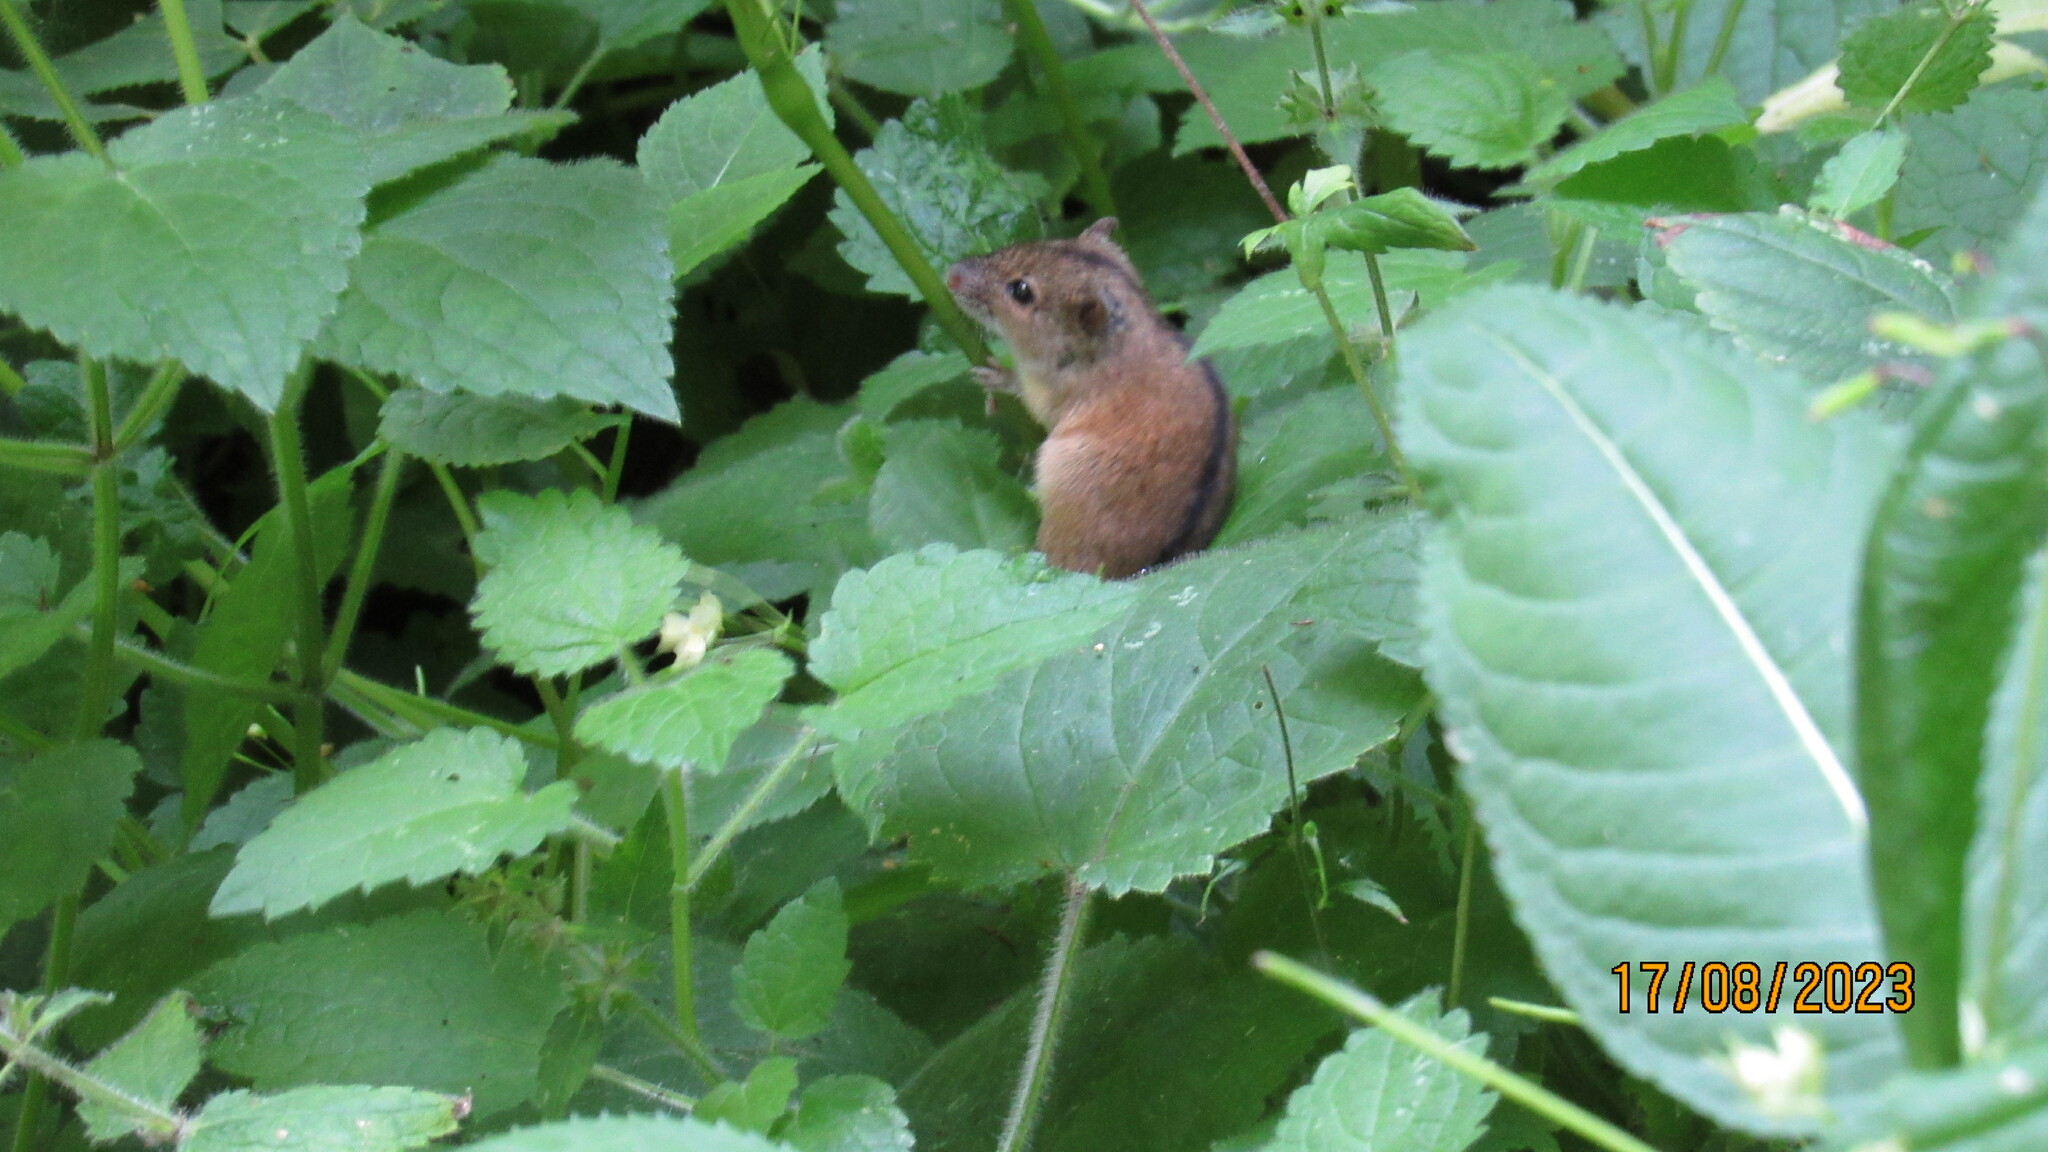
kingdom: Animalia
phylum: Chordata
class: Mammalia
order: Rodentia
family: Muridae
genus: Apodemus
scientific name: Apodemus agrarius
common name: Striped field mouse
